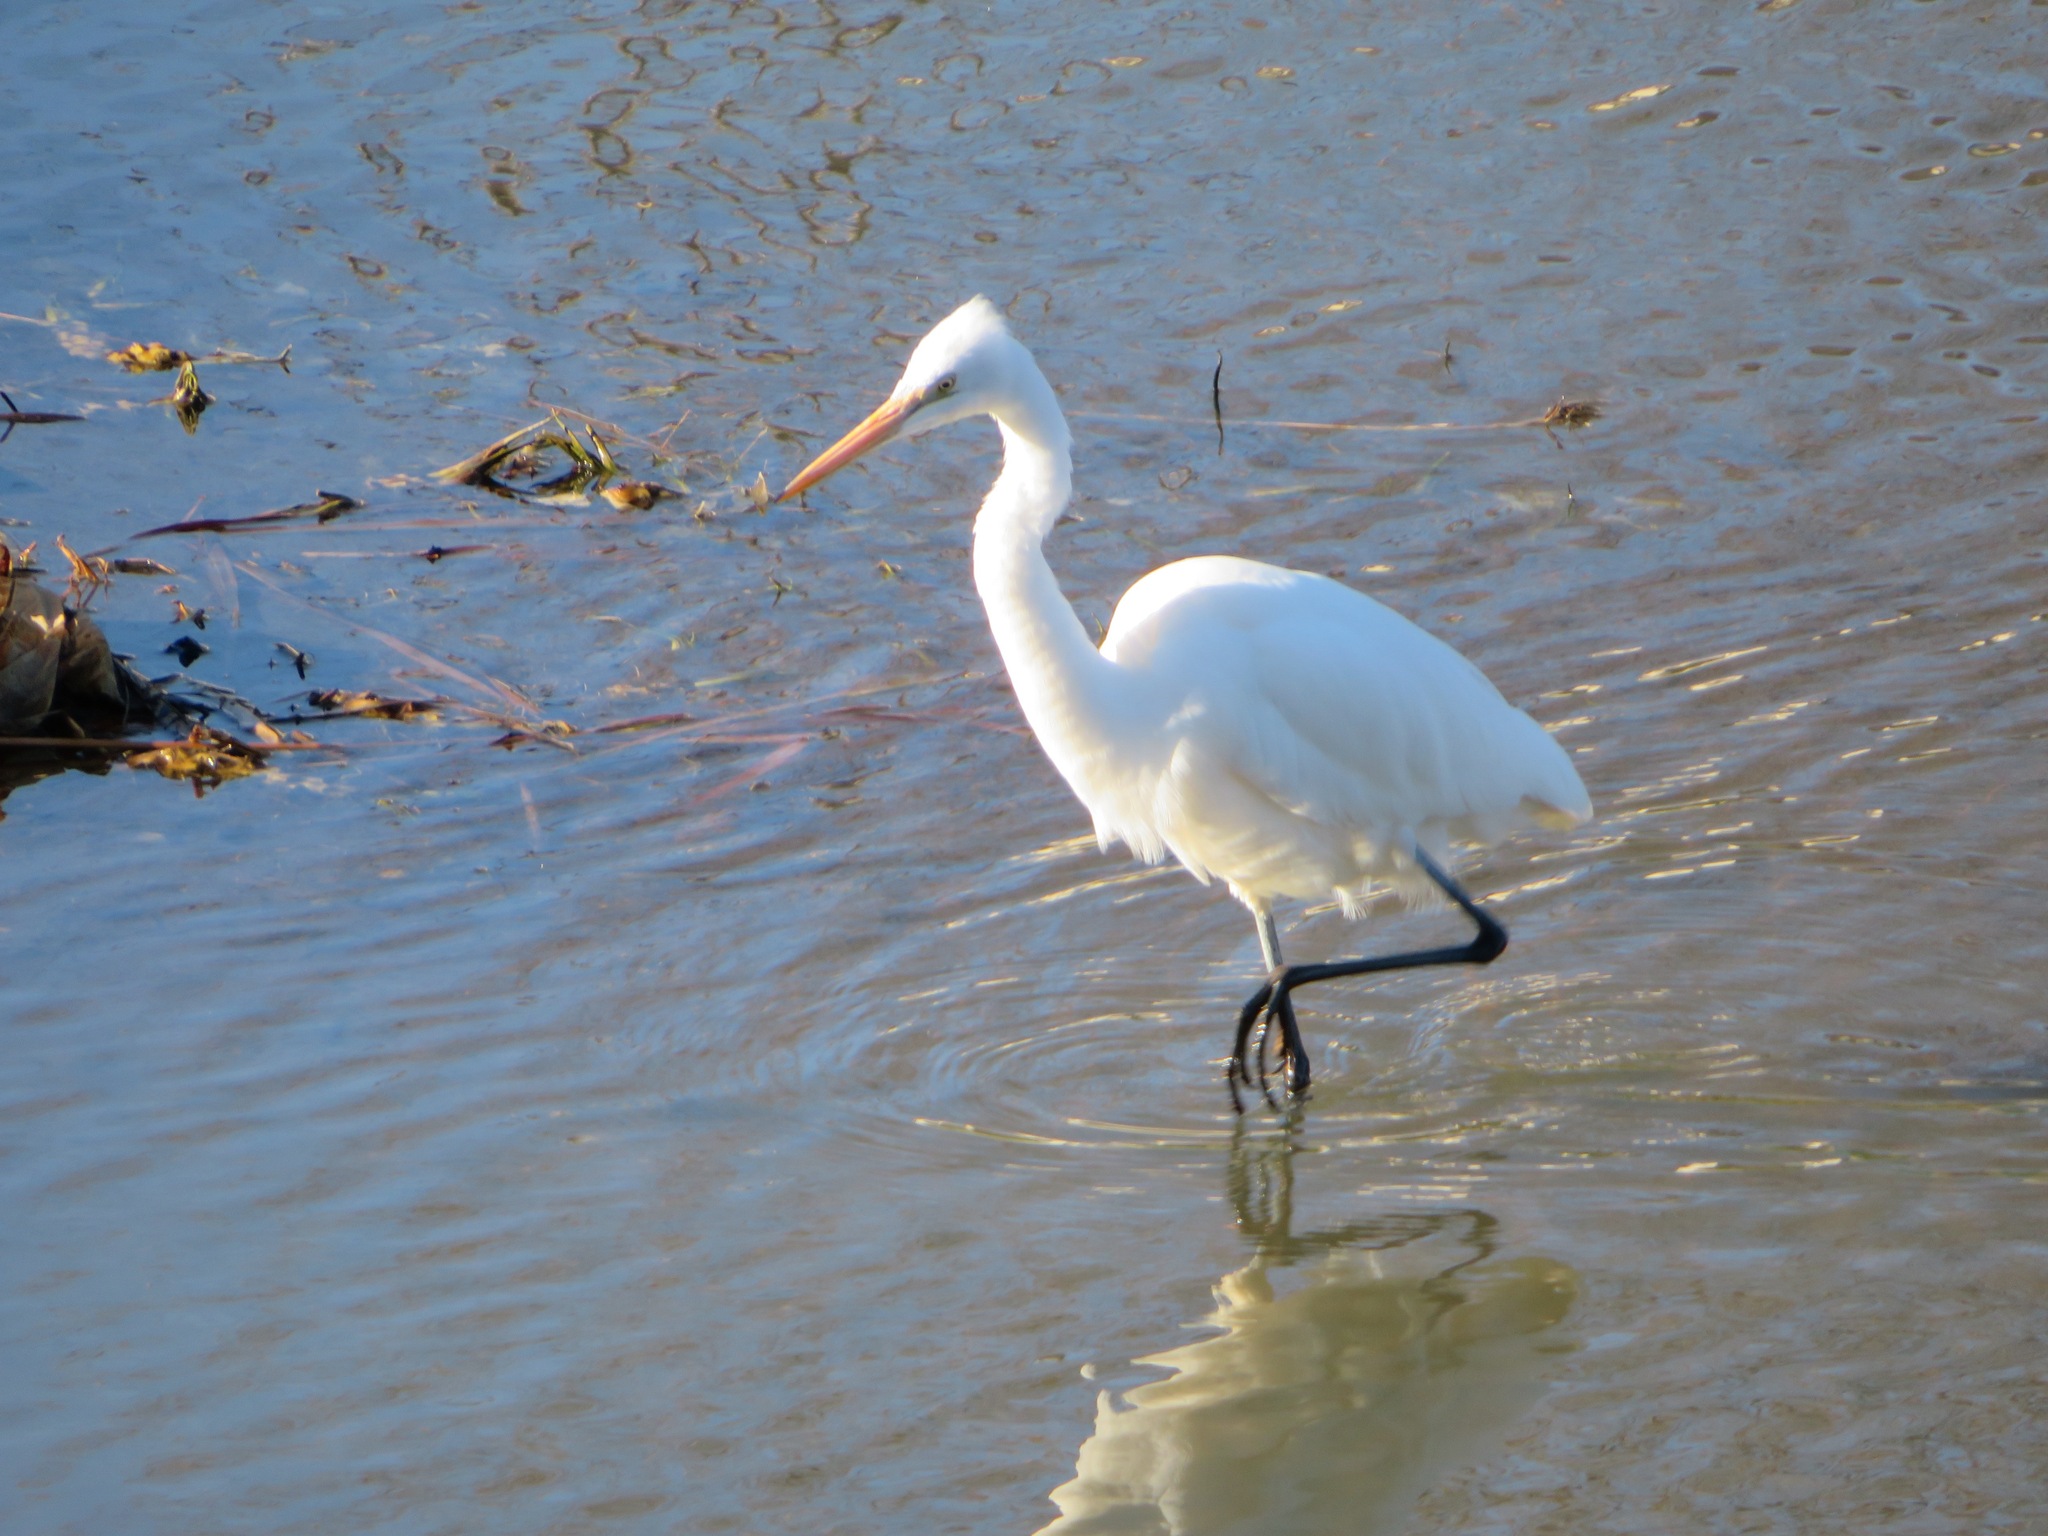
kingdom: Animalia
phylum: Chordata
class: Aves
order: Pelecaniformes
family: Ardeidae
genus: Ardea
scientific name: Ardea alba
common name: Great egret
